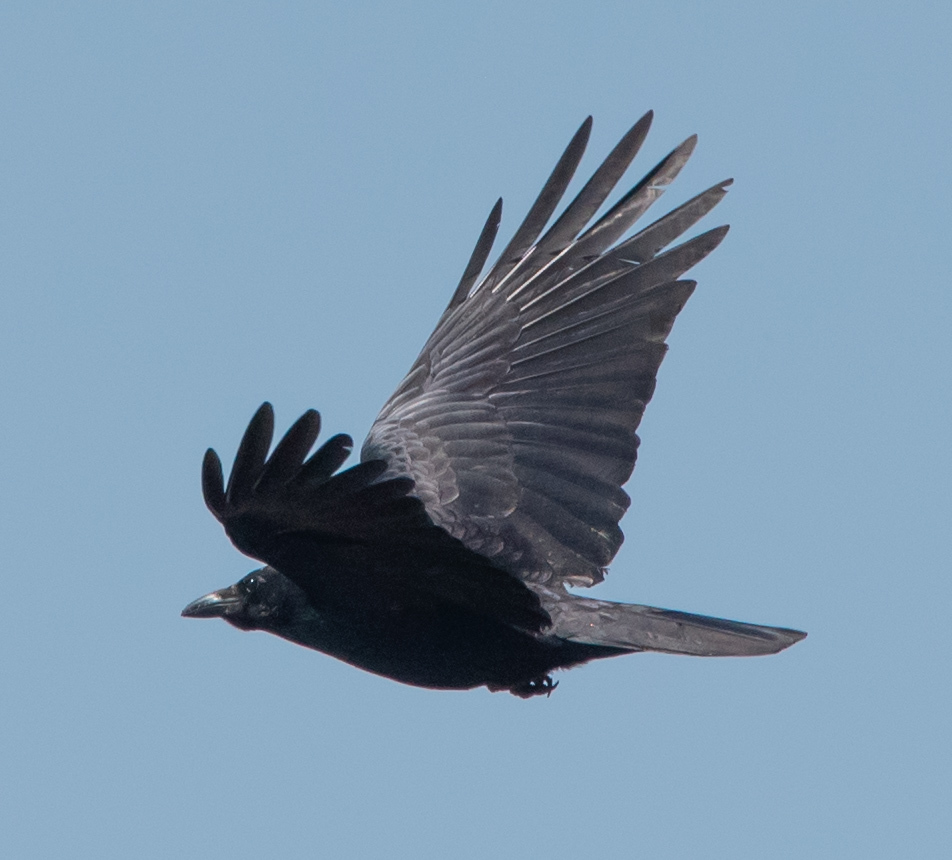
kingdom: Animalia
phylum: Chordata
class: Aves
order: Passeriformes
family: Corvidae
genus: Corvus
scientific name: Corvus corax
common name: Common raven
